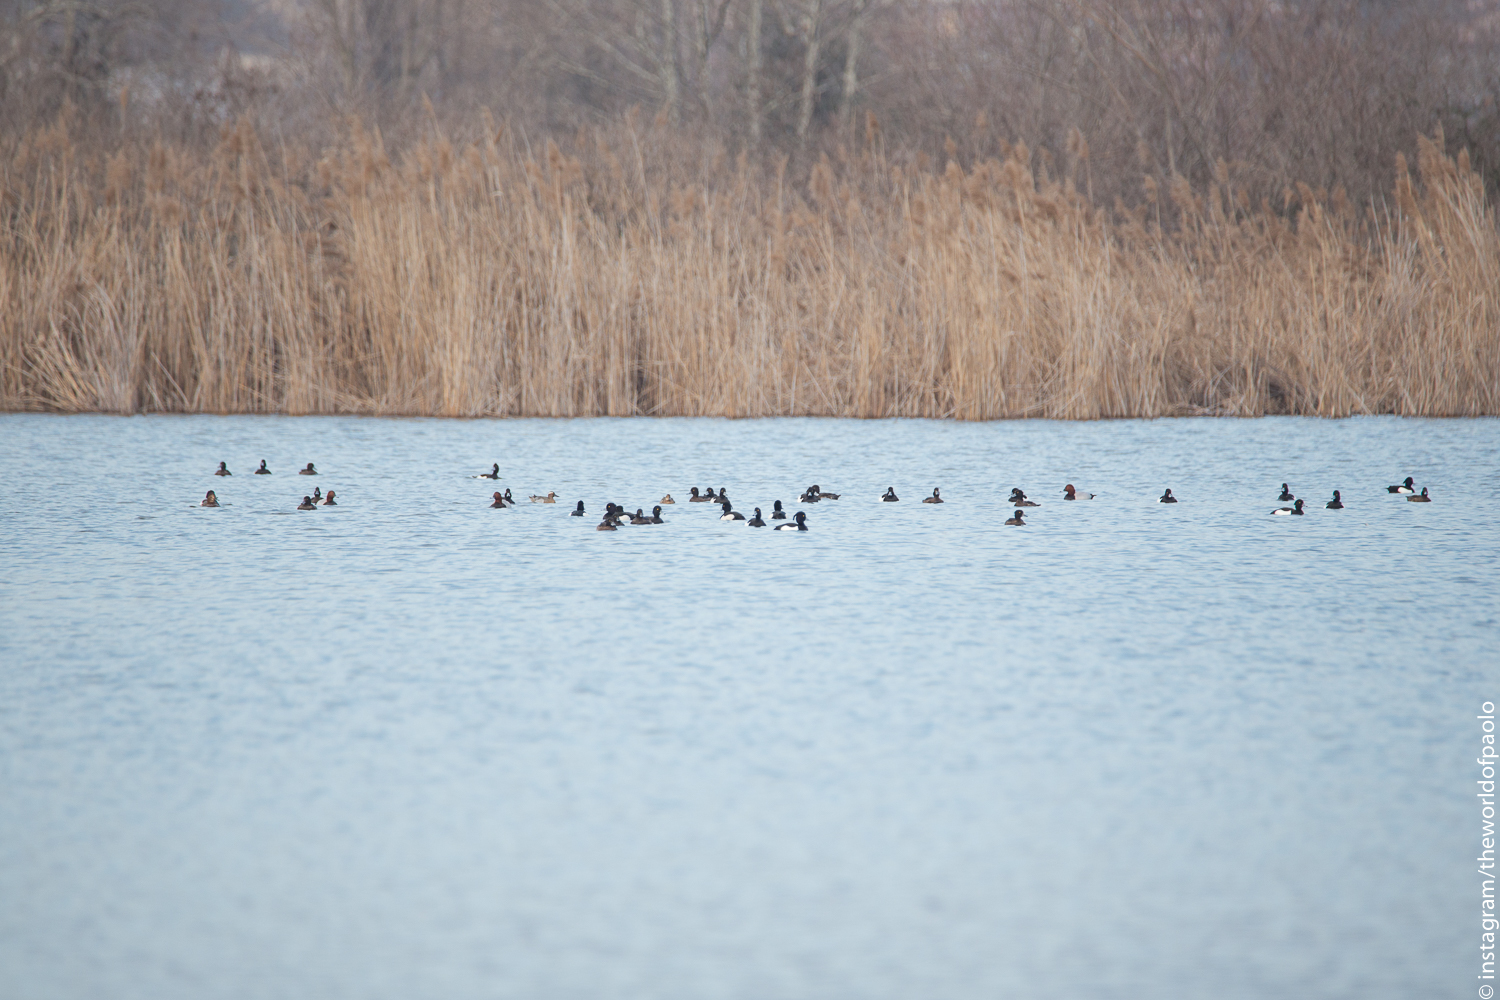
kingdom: Animalia
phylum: Chordata
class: Aves
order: Anseriformes
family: Anatidae
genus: Aythya
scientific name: Aythya fuligula
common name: Tufted duck
